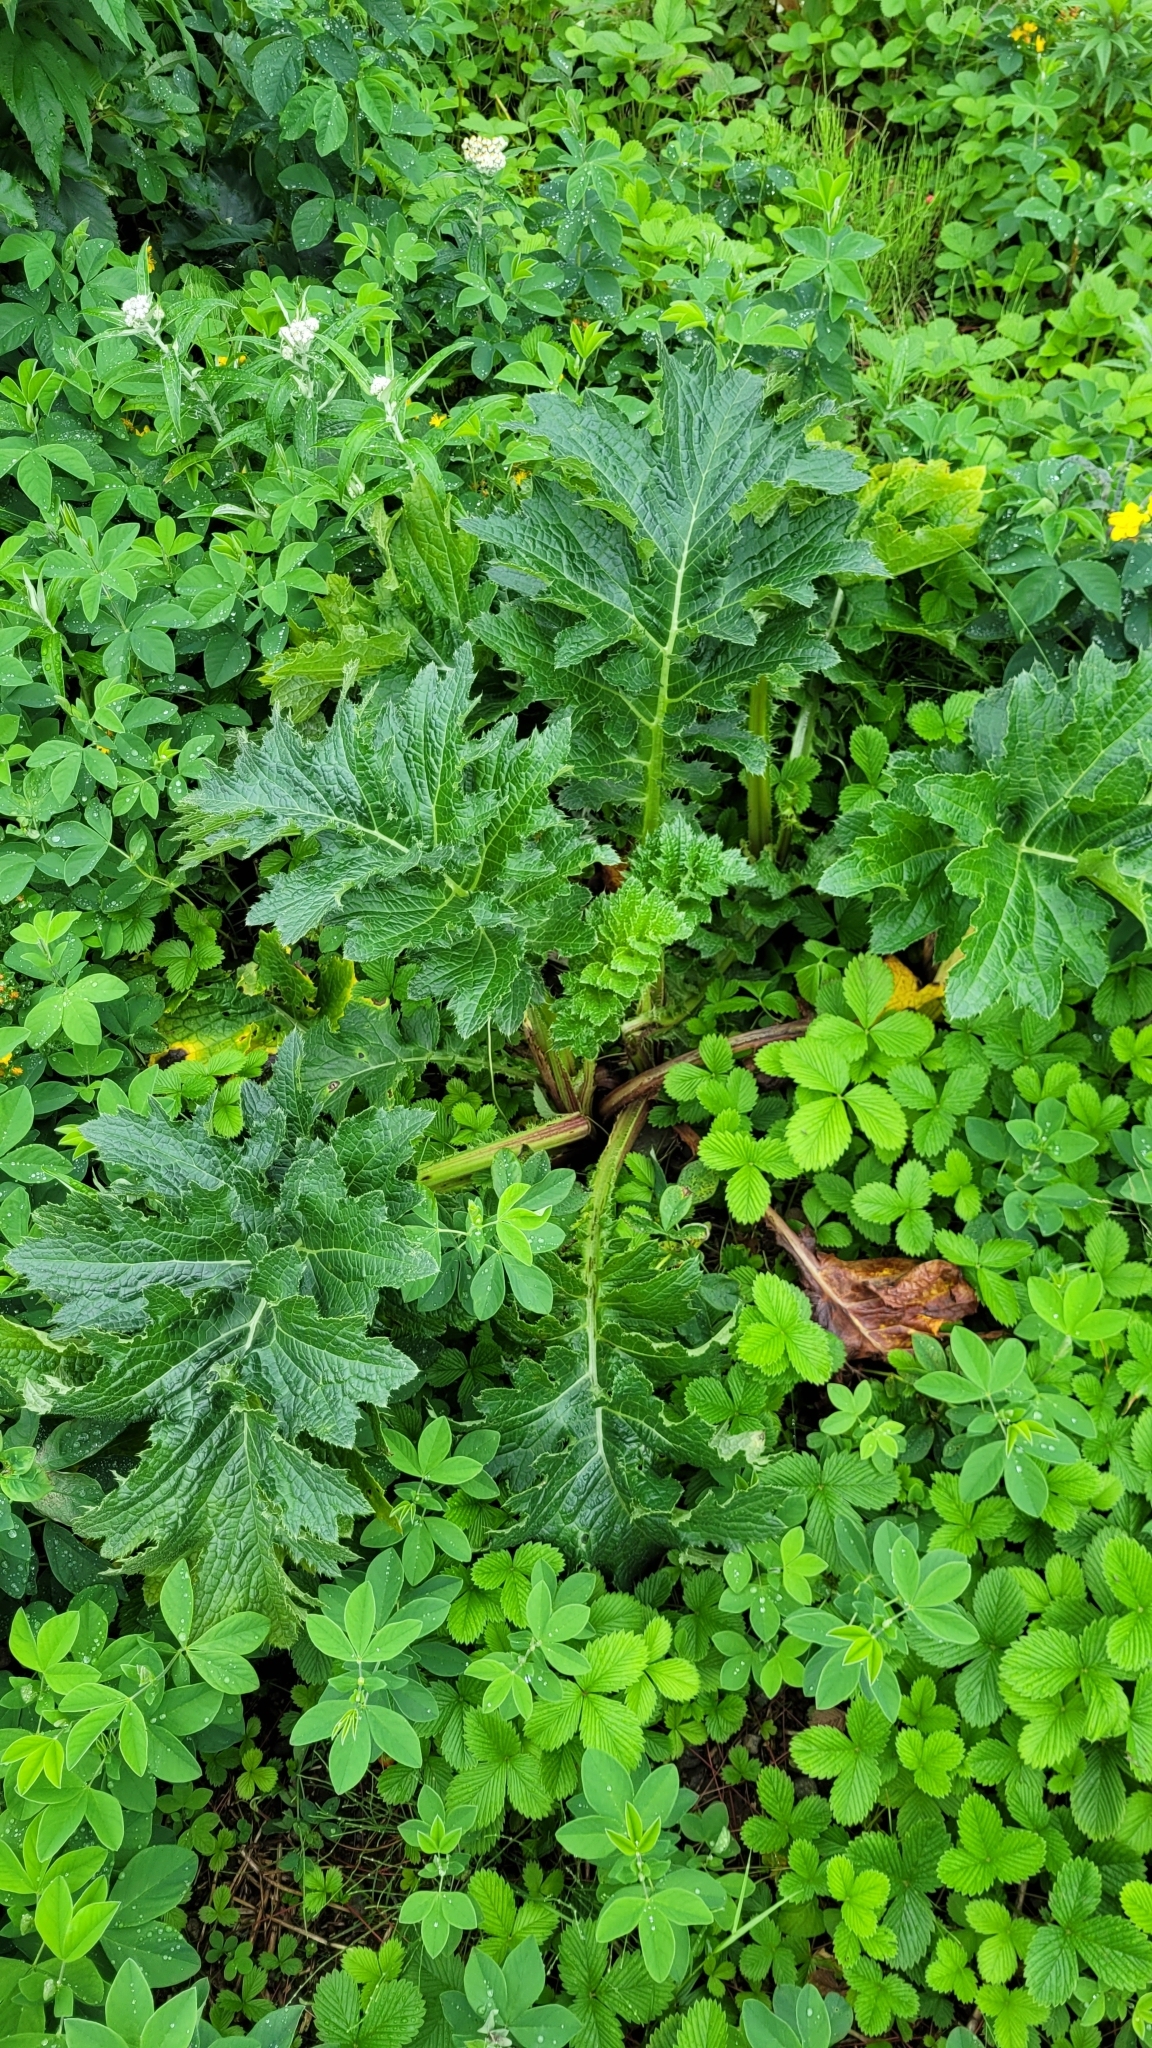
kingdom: Plantae
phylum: Tracheophyta
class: Magnoliopsida
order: Asterales
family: Asteraceae
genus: Cirsium
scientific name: Cirsium kamtschaticum
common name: Kamchatka thistle
